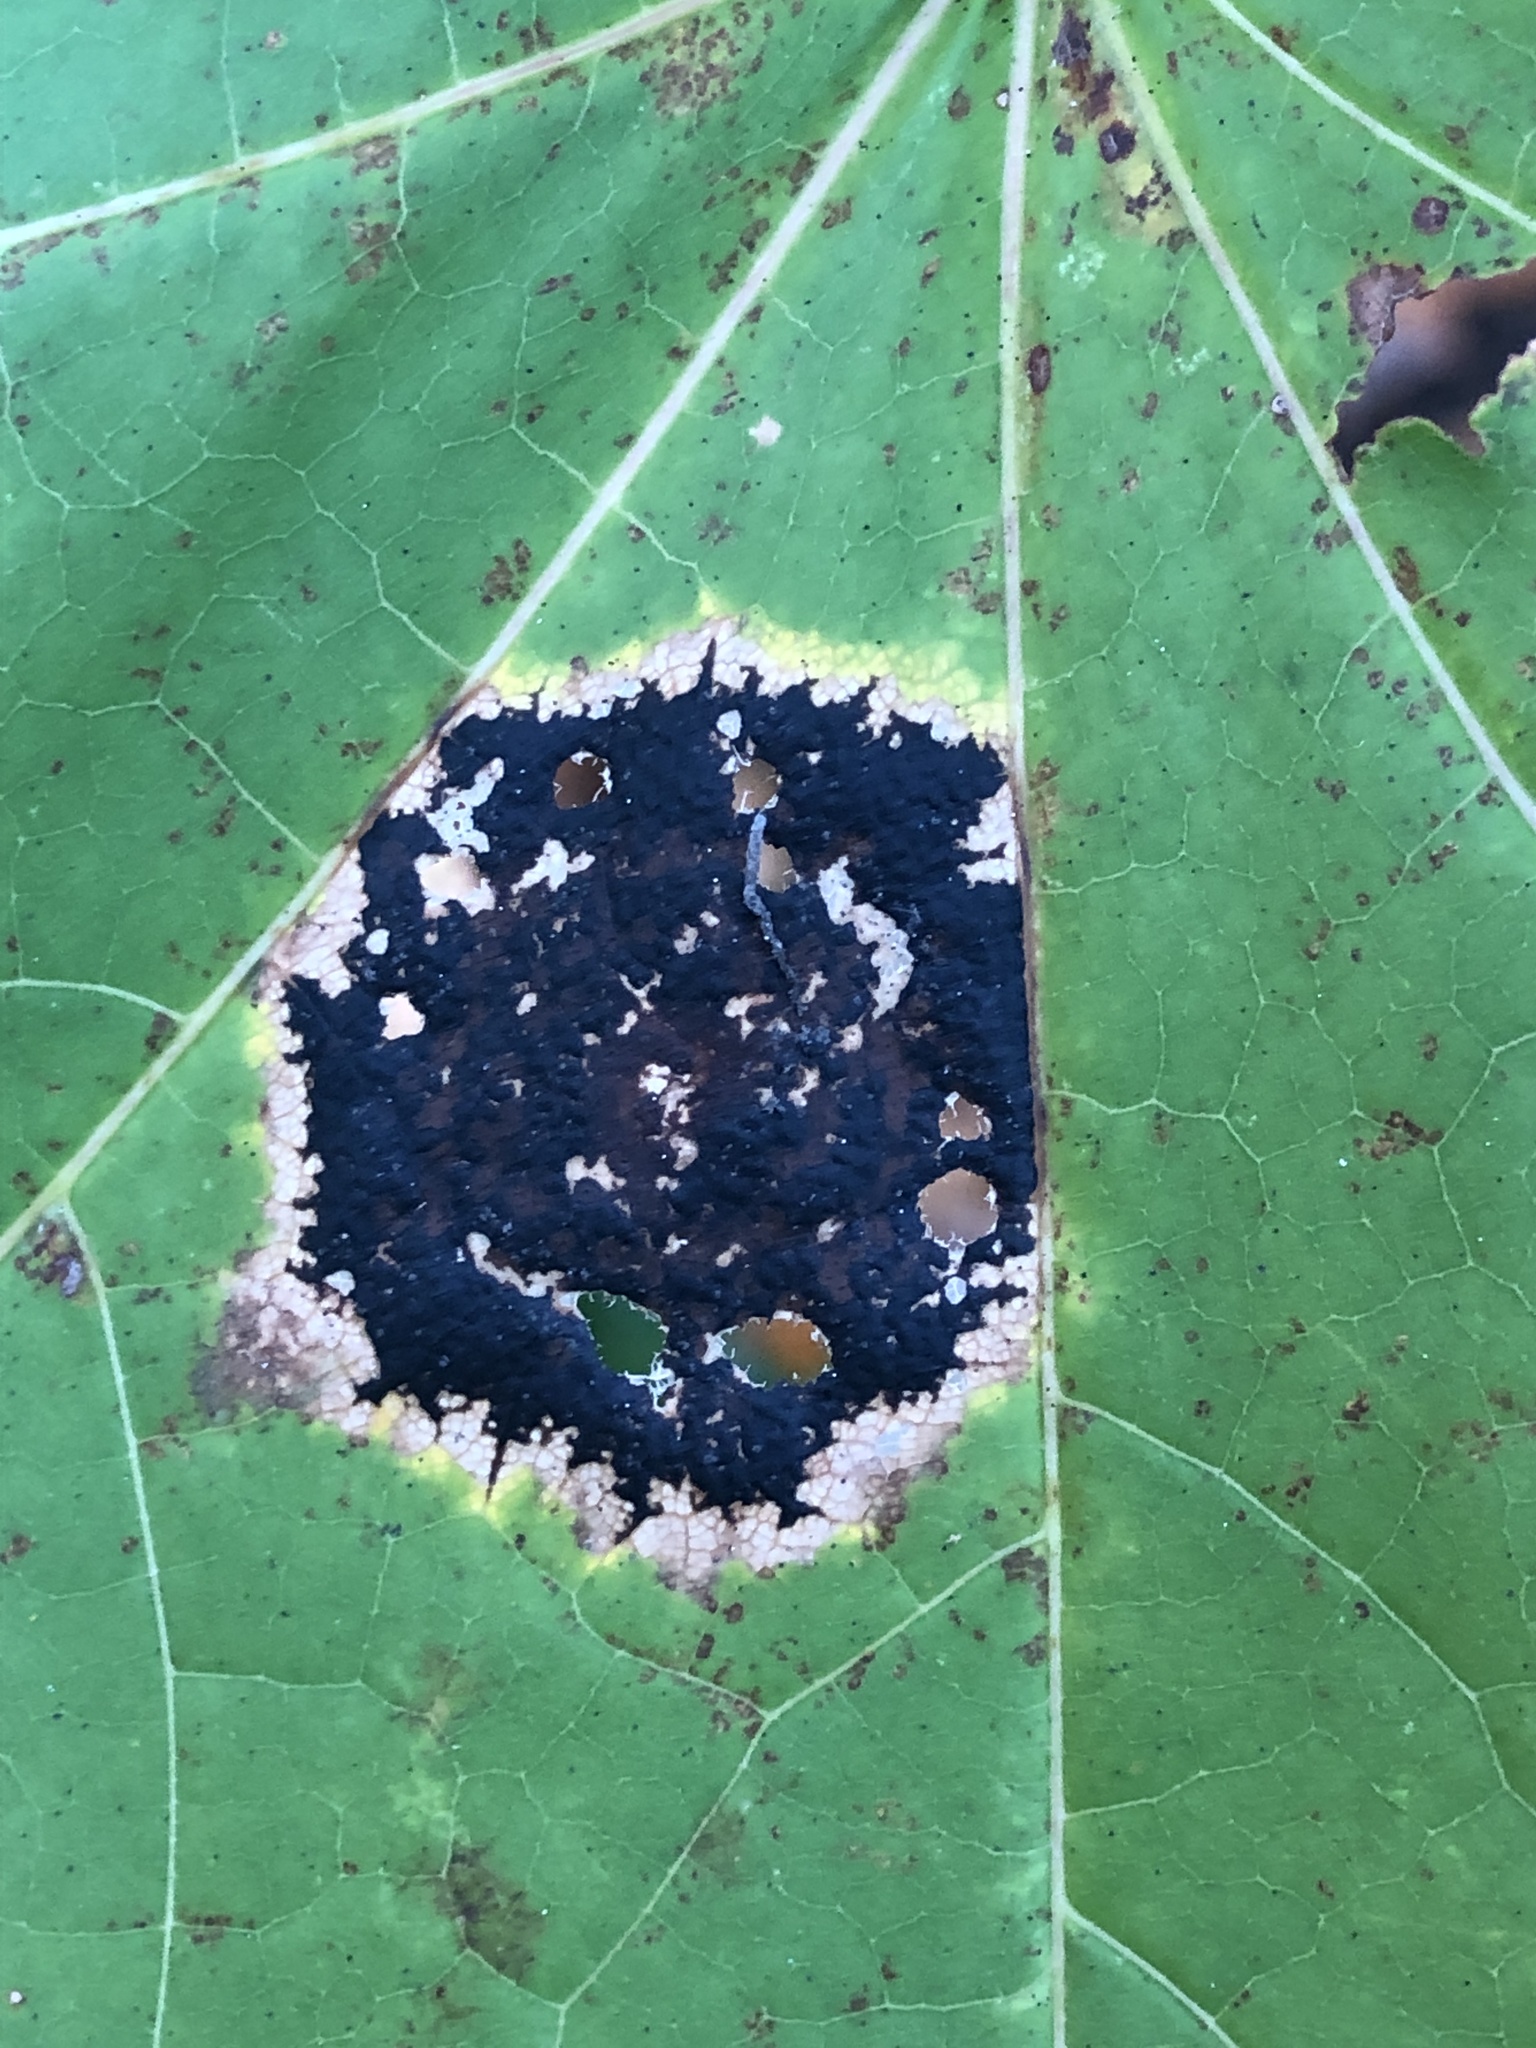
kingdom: Fungi
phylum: Ascomycota
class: Leotiomycetes
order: Rhytismatales
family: Rhytismataceae
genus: Rhytisma
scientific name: Rhytisma acerinum
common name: European tar spot
